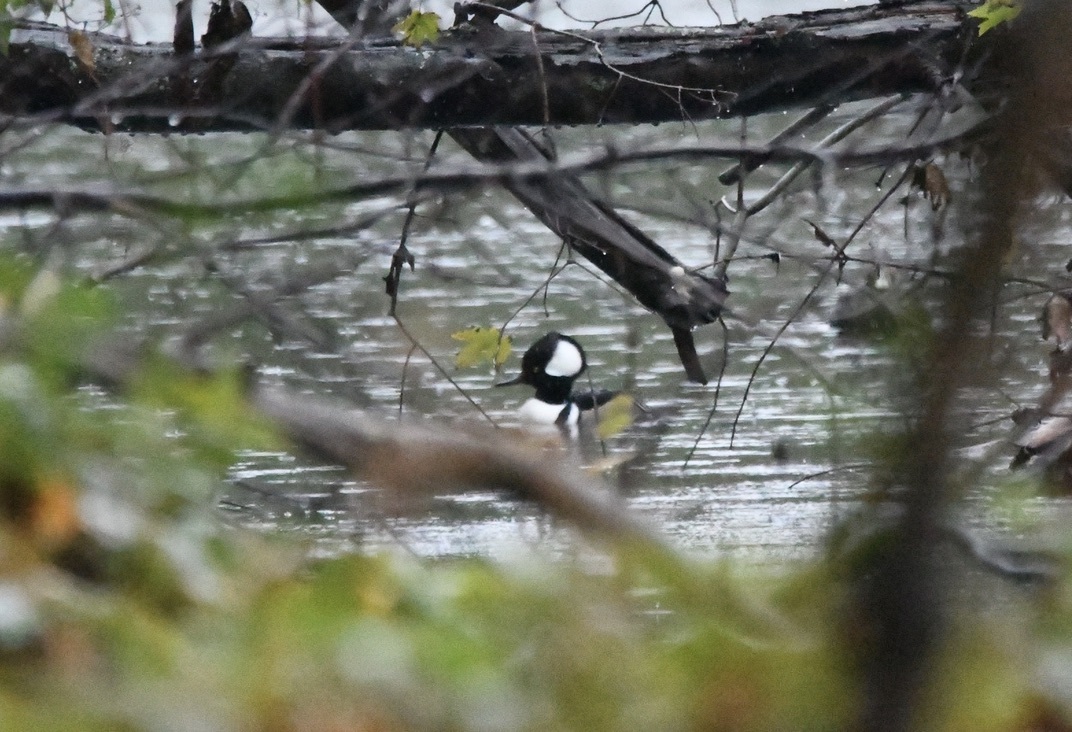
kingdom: Animalia
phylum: Chordata
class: Aves
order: Anseriformes
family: Anatidae
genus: Lophodytes
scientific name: Lophodytes cucullatus
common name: Hooded merganser
